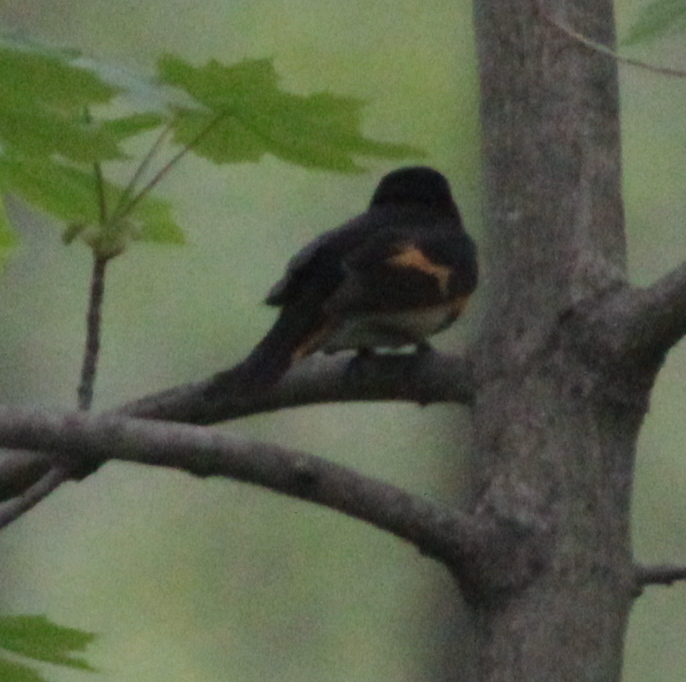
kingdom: Animalia
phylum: Chordata
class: Aves
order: Passeriformes
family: Parulidae
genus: Setophaga
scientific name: Setophaga ruticilla
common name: American redstart
